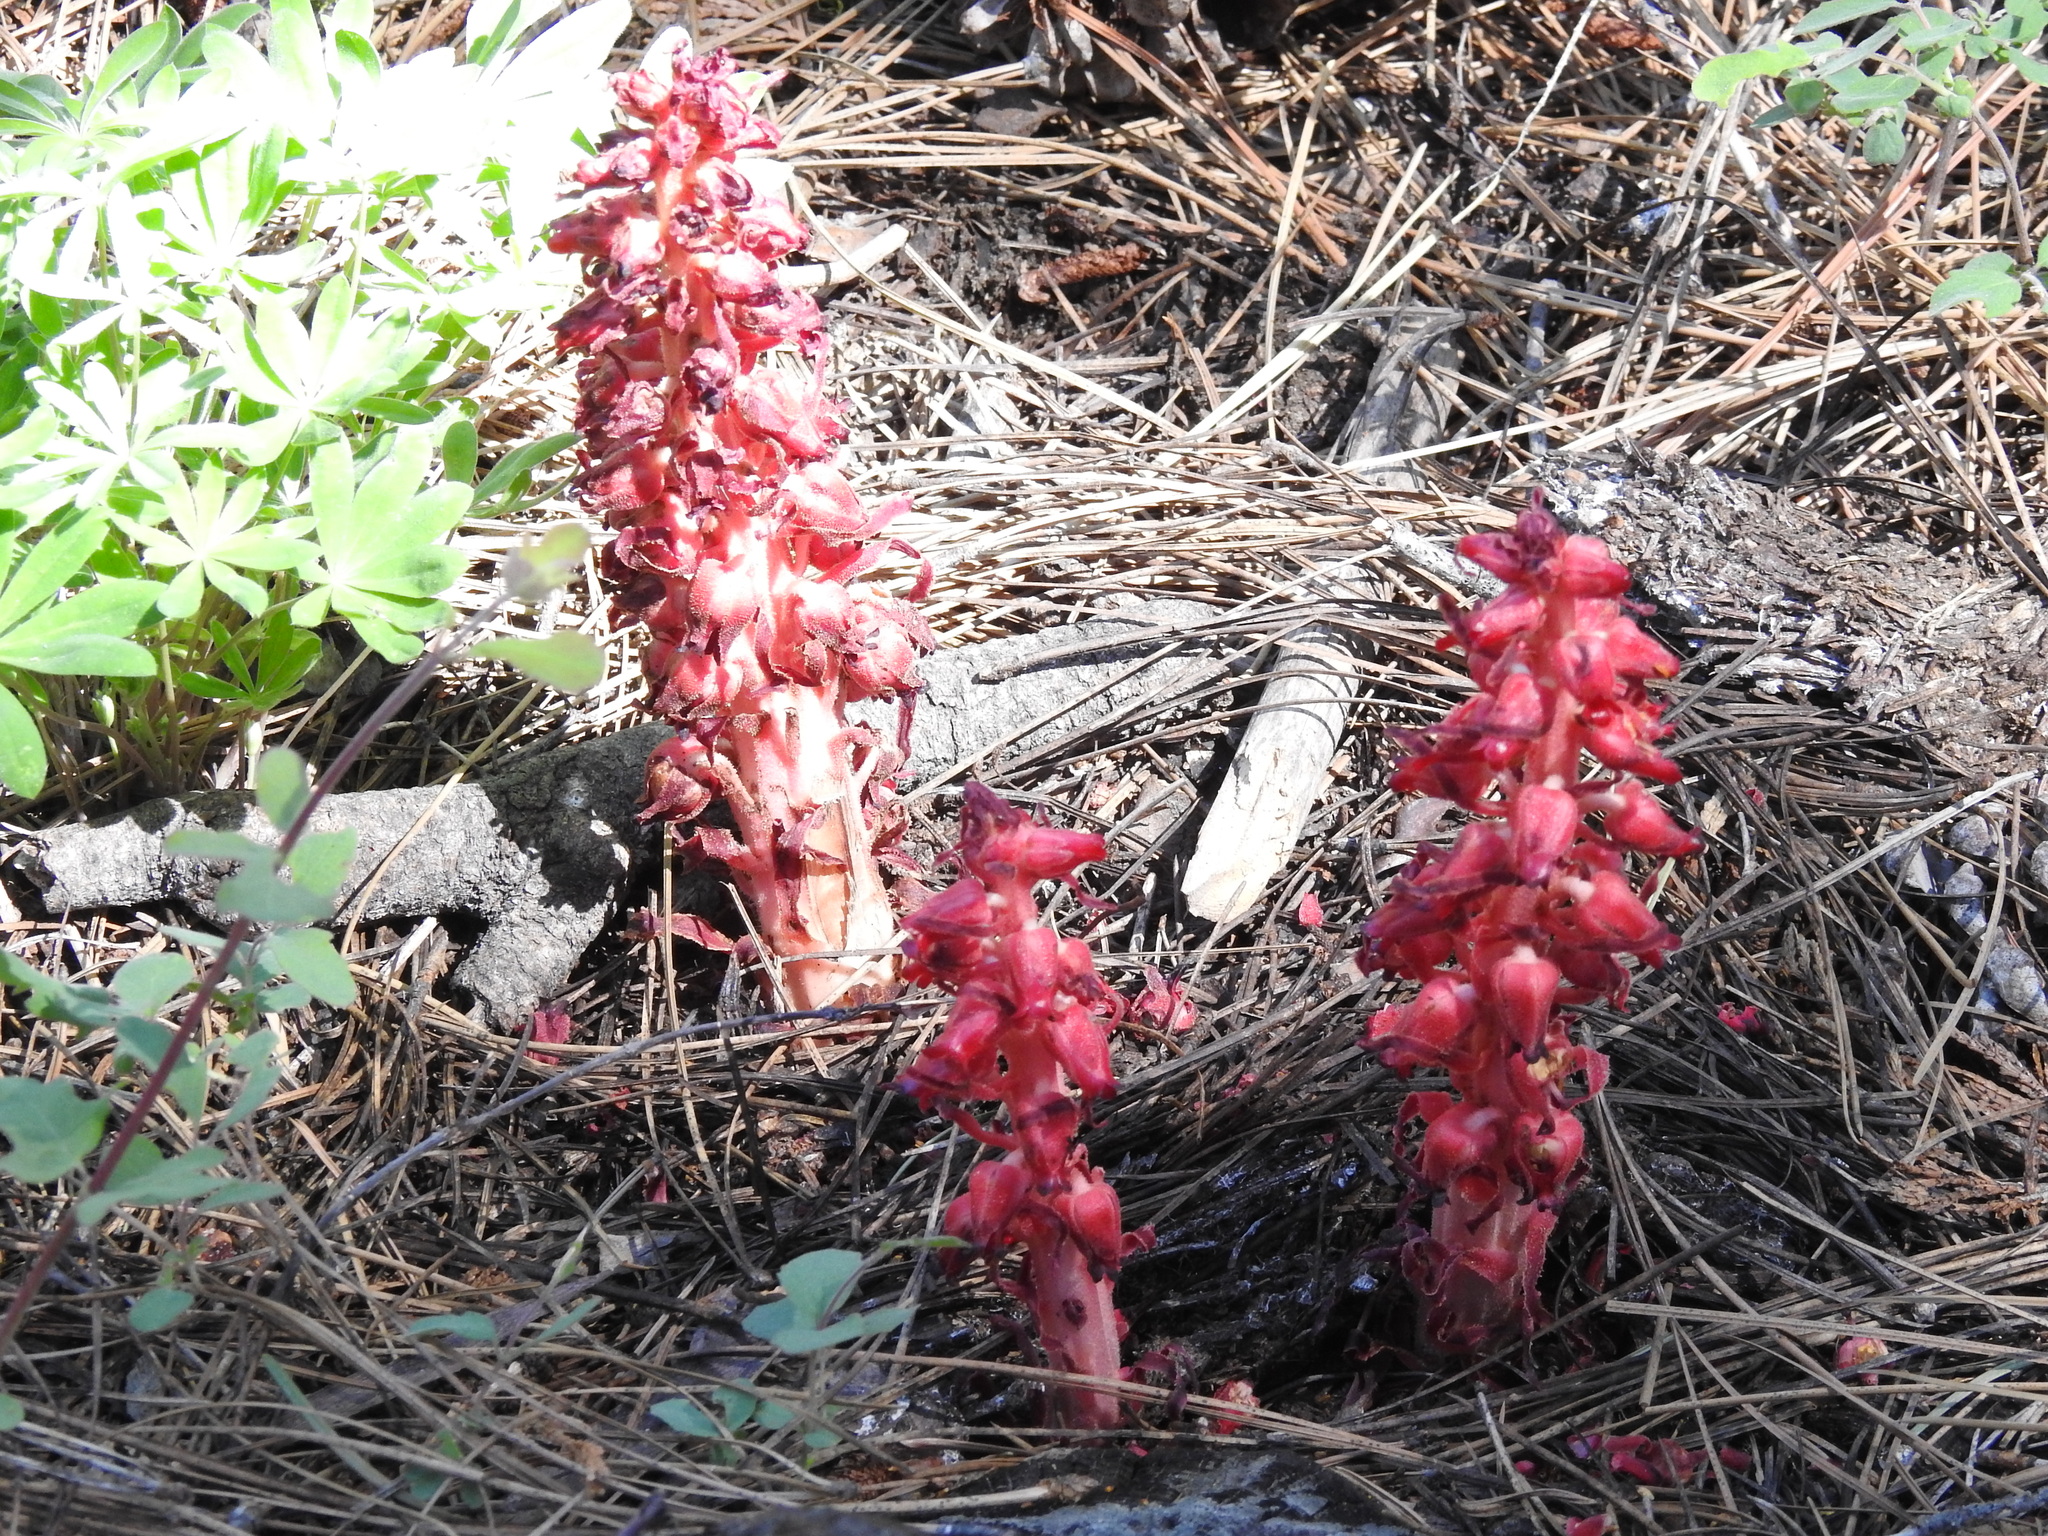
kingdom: Plantae
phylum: Tracheophyta
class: Magnoliopsida
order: Ericales
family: Ericaceae
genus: Sarcodes
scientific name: Sarcodes sanguinea
